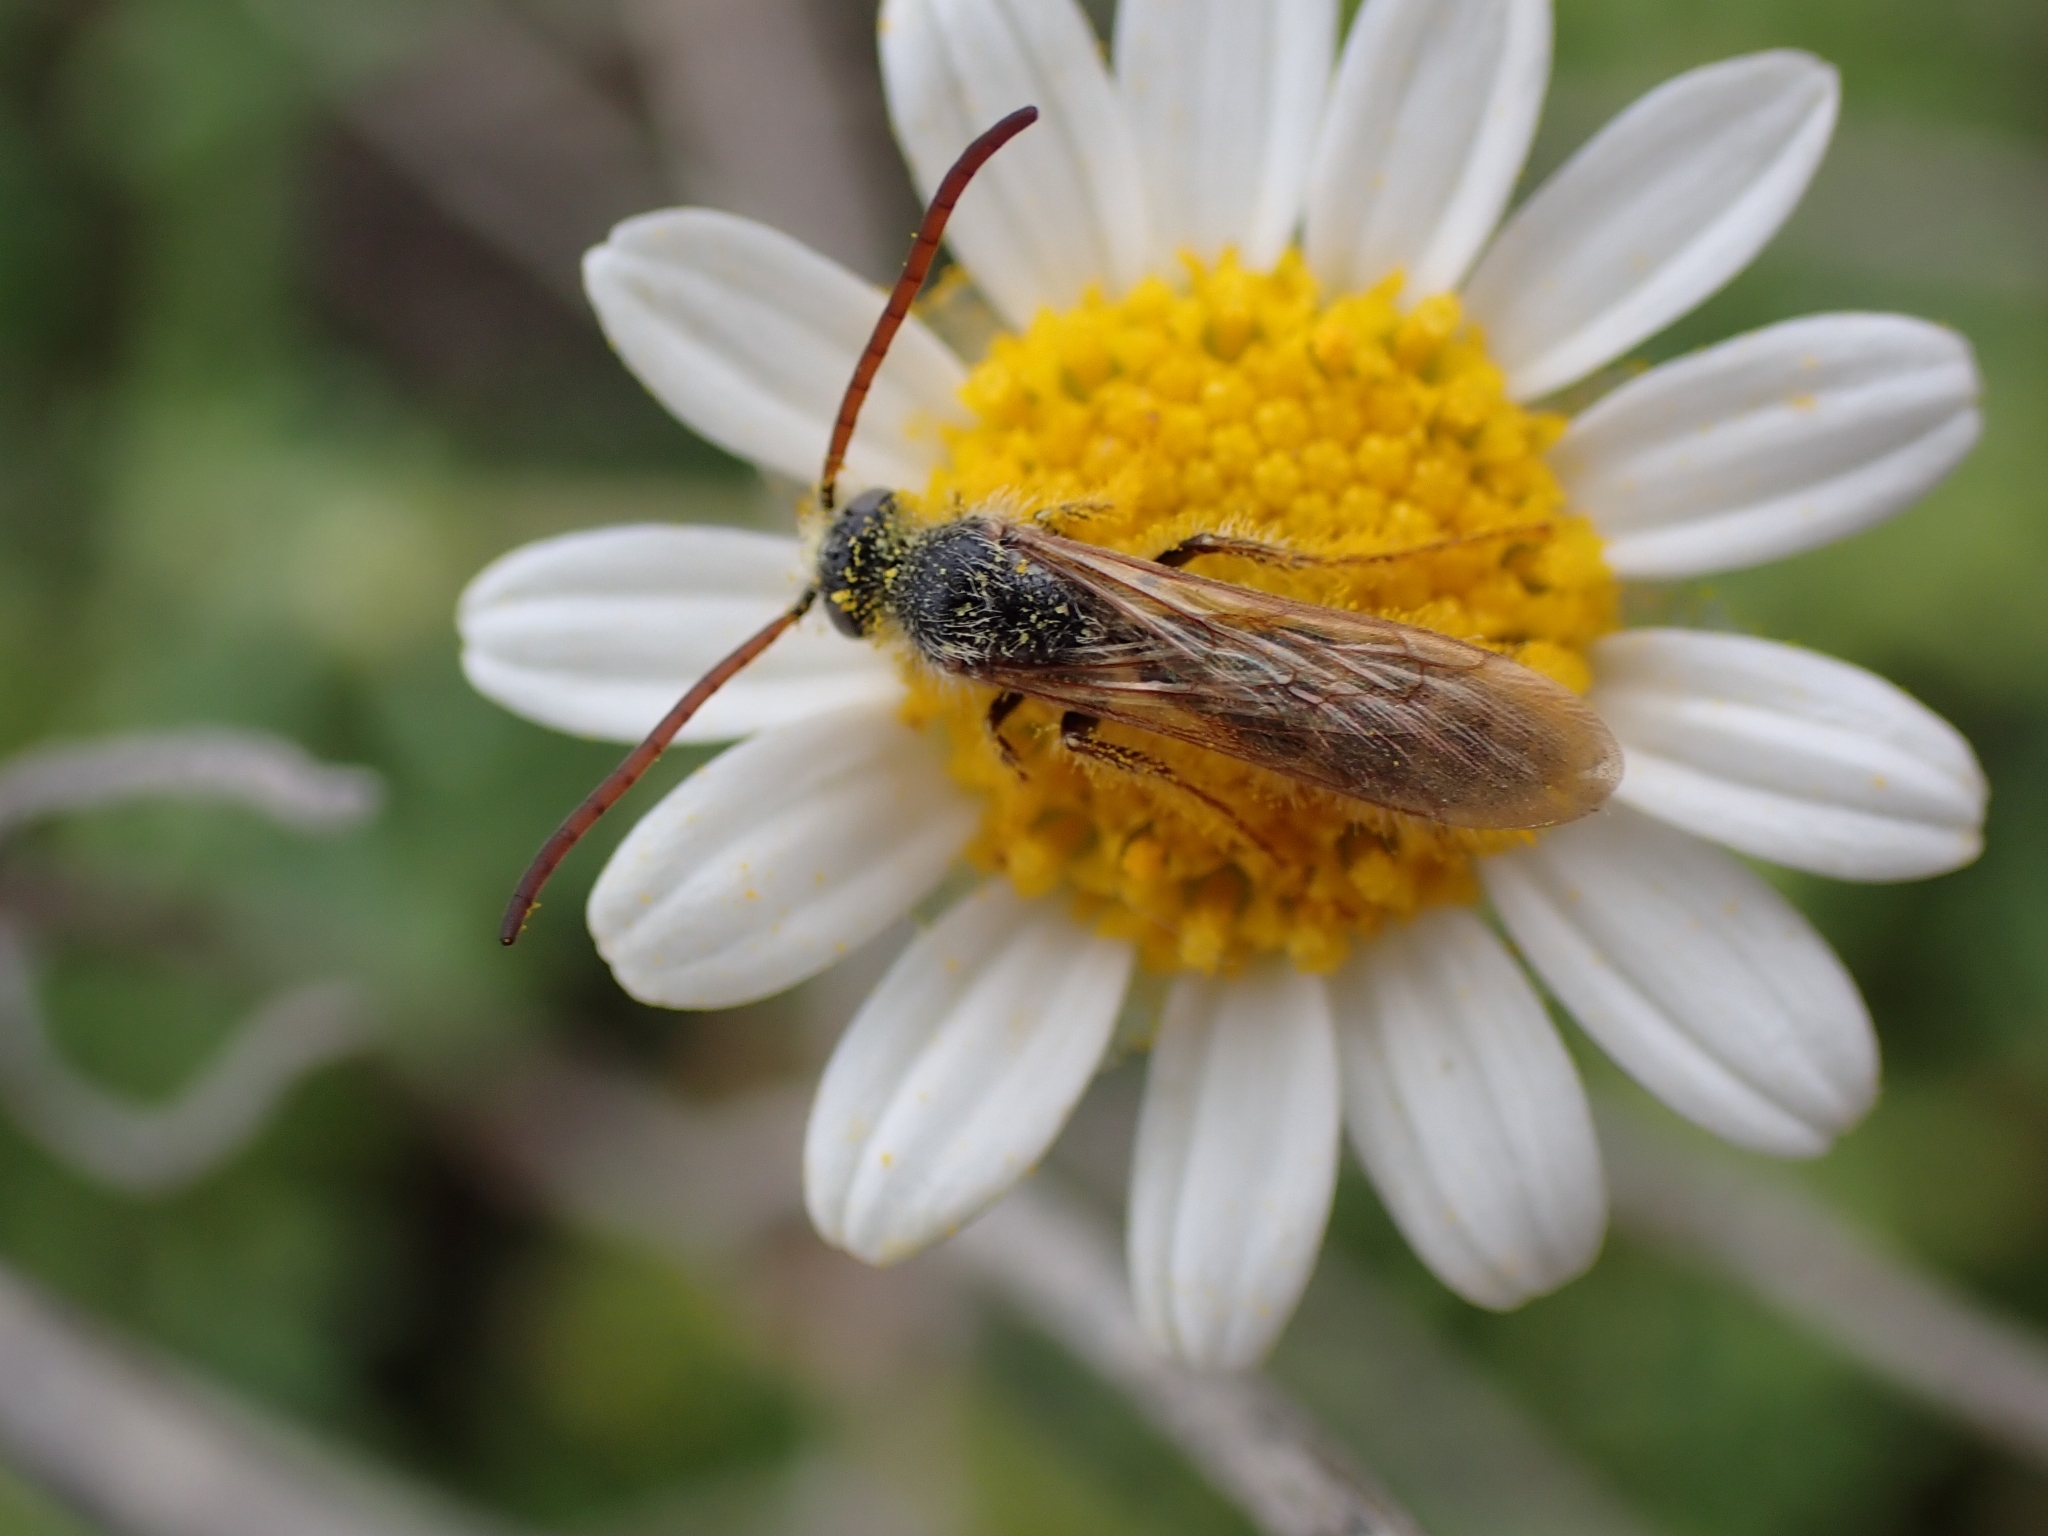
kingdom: Animalia
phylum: Arthropoda
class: Insecta
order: Hymenoptera
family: Scoliidae
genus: Micromeriella
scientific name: Micromeriella hyalina
